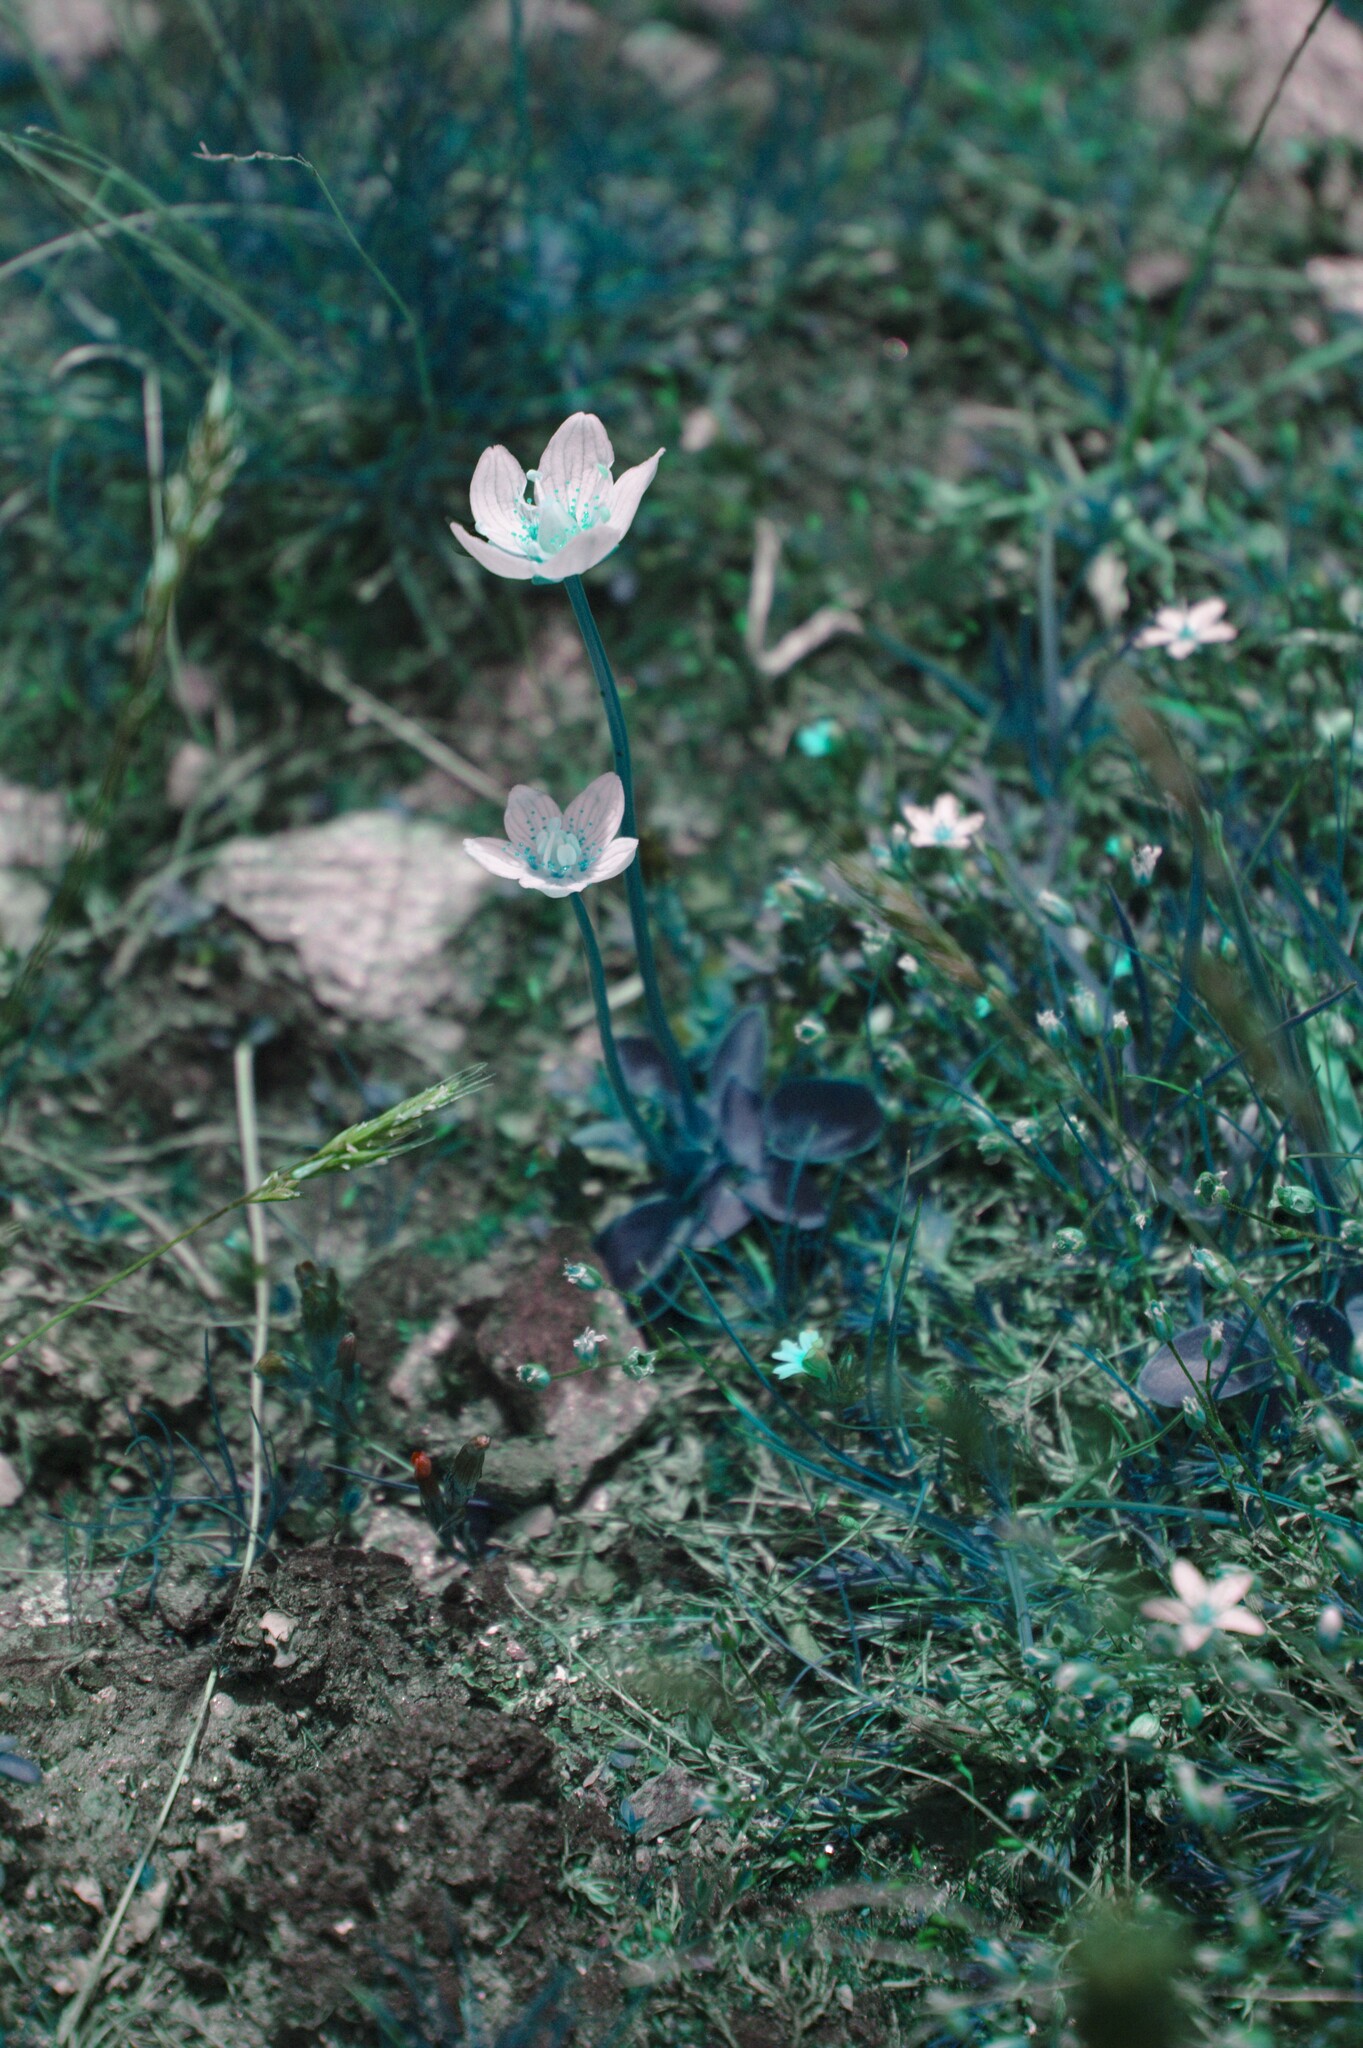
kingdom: Plantae
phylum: Tracheophyta
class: Magnoliopsida
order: Celastrales
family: Parnassiaceae
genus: Parnassia
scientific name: Parnassia palustris
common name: Grass-of-parnassus
